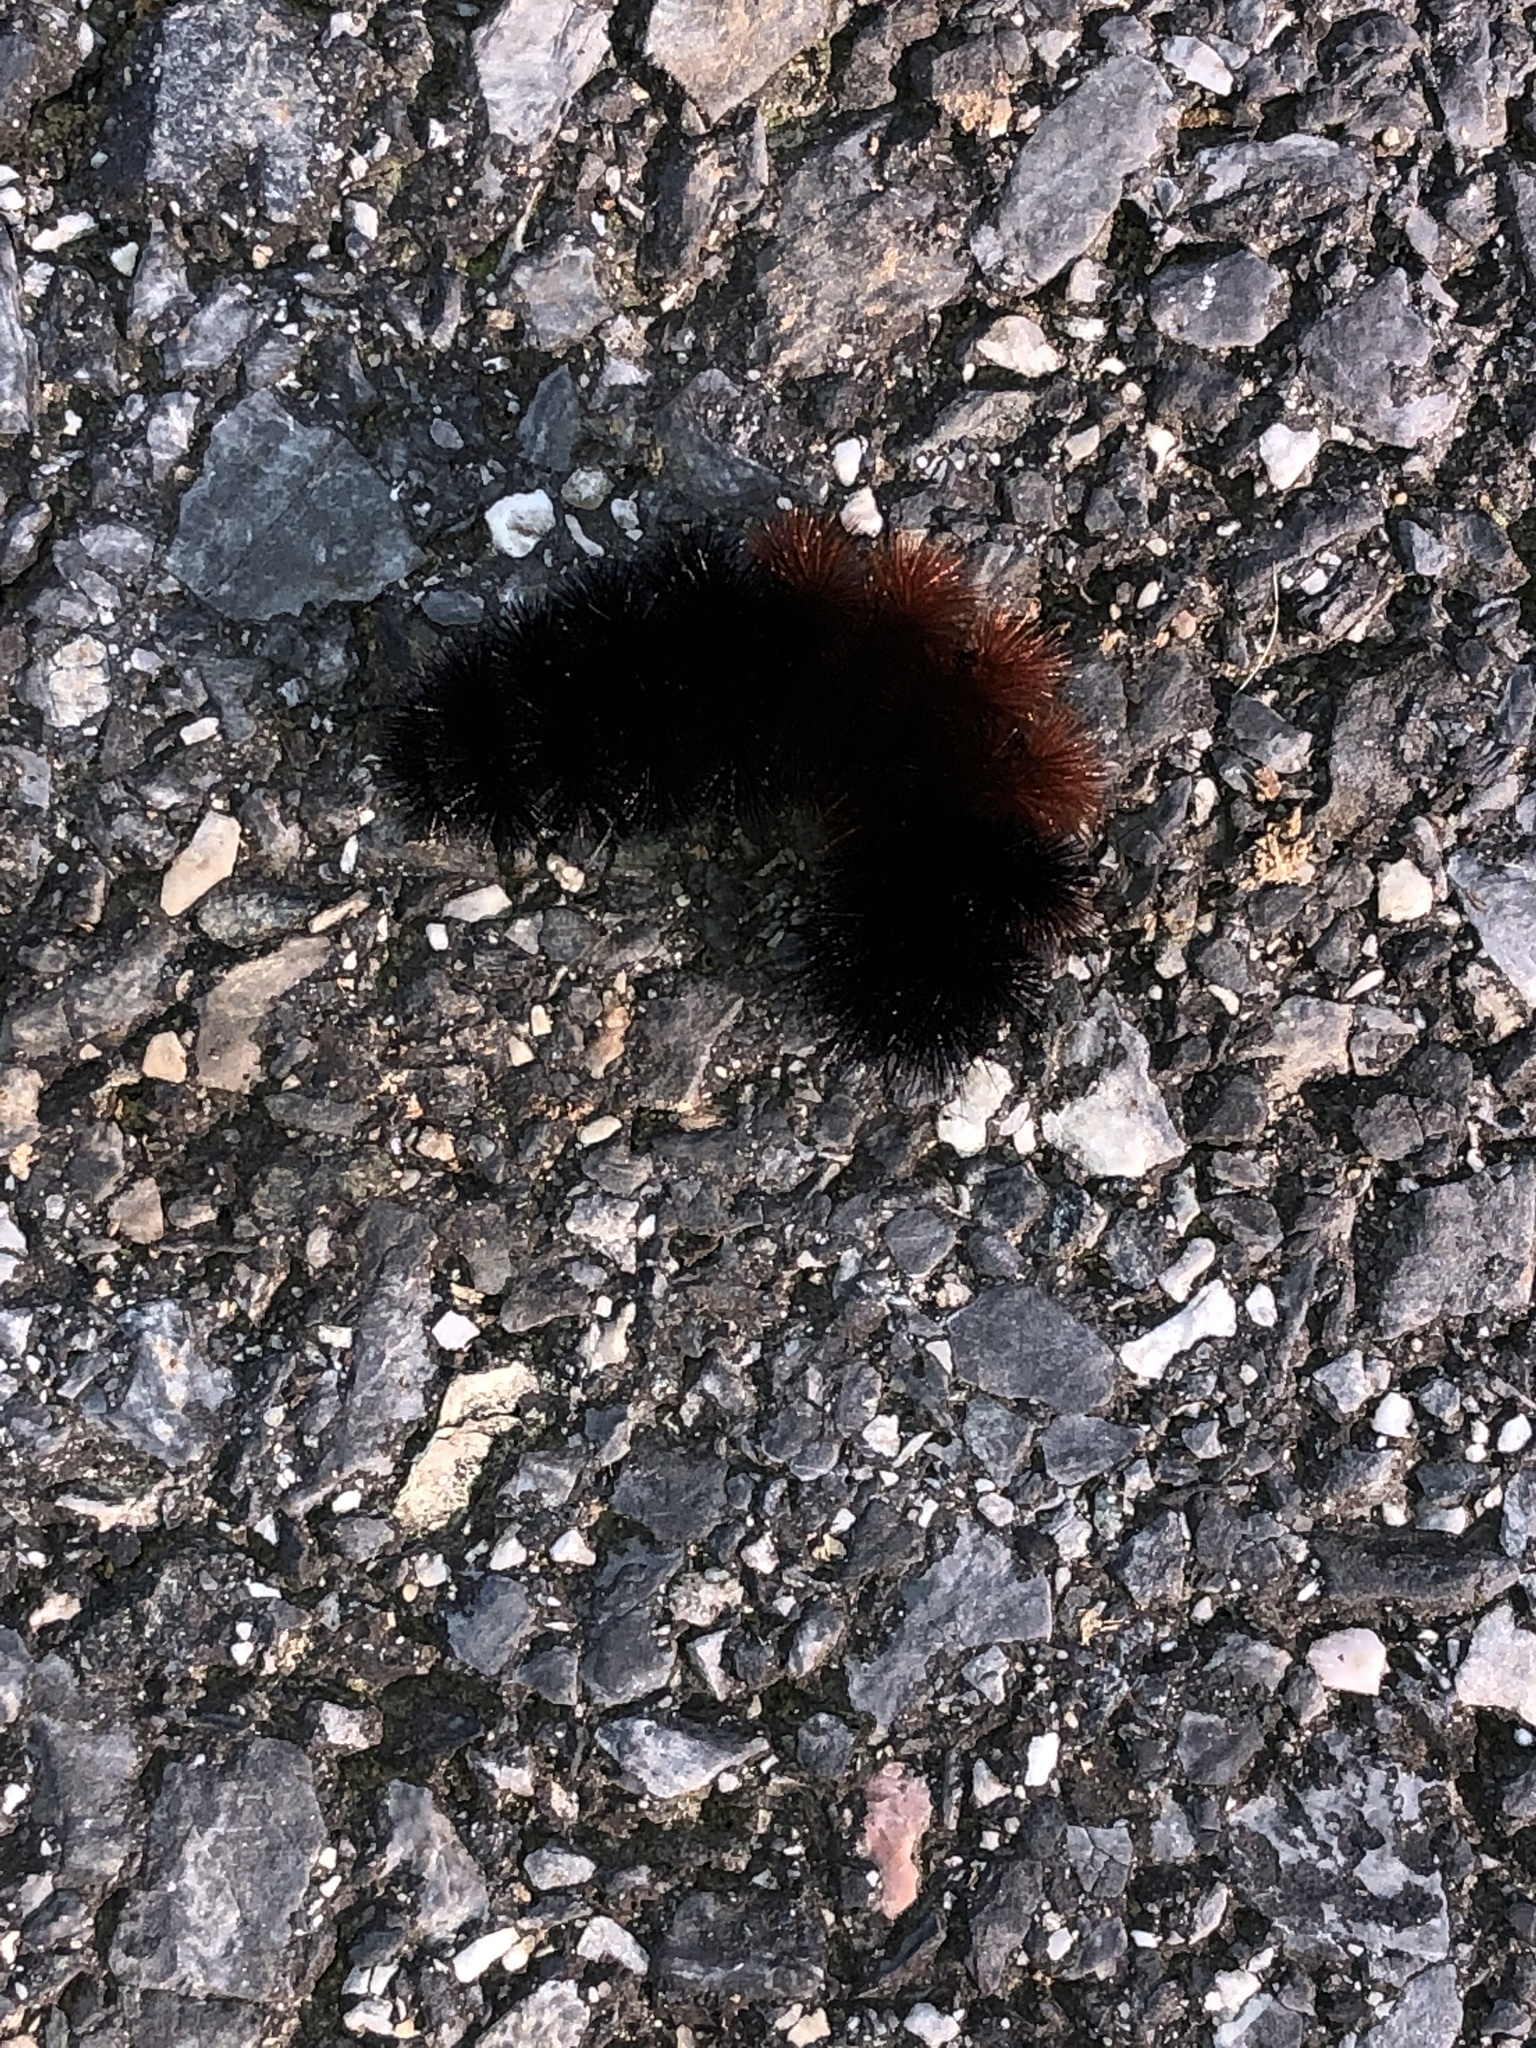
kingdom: Animalia
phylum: Arthropoda
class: Insecta
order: Lepidoptera
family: Erebidae
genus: Pyrrharctia
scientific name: Pyrrharctia isabella
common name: Isabella tiger moth
